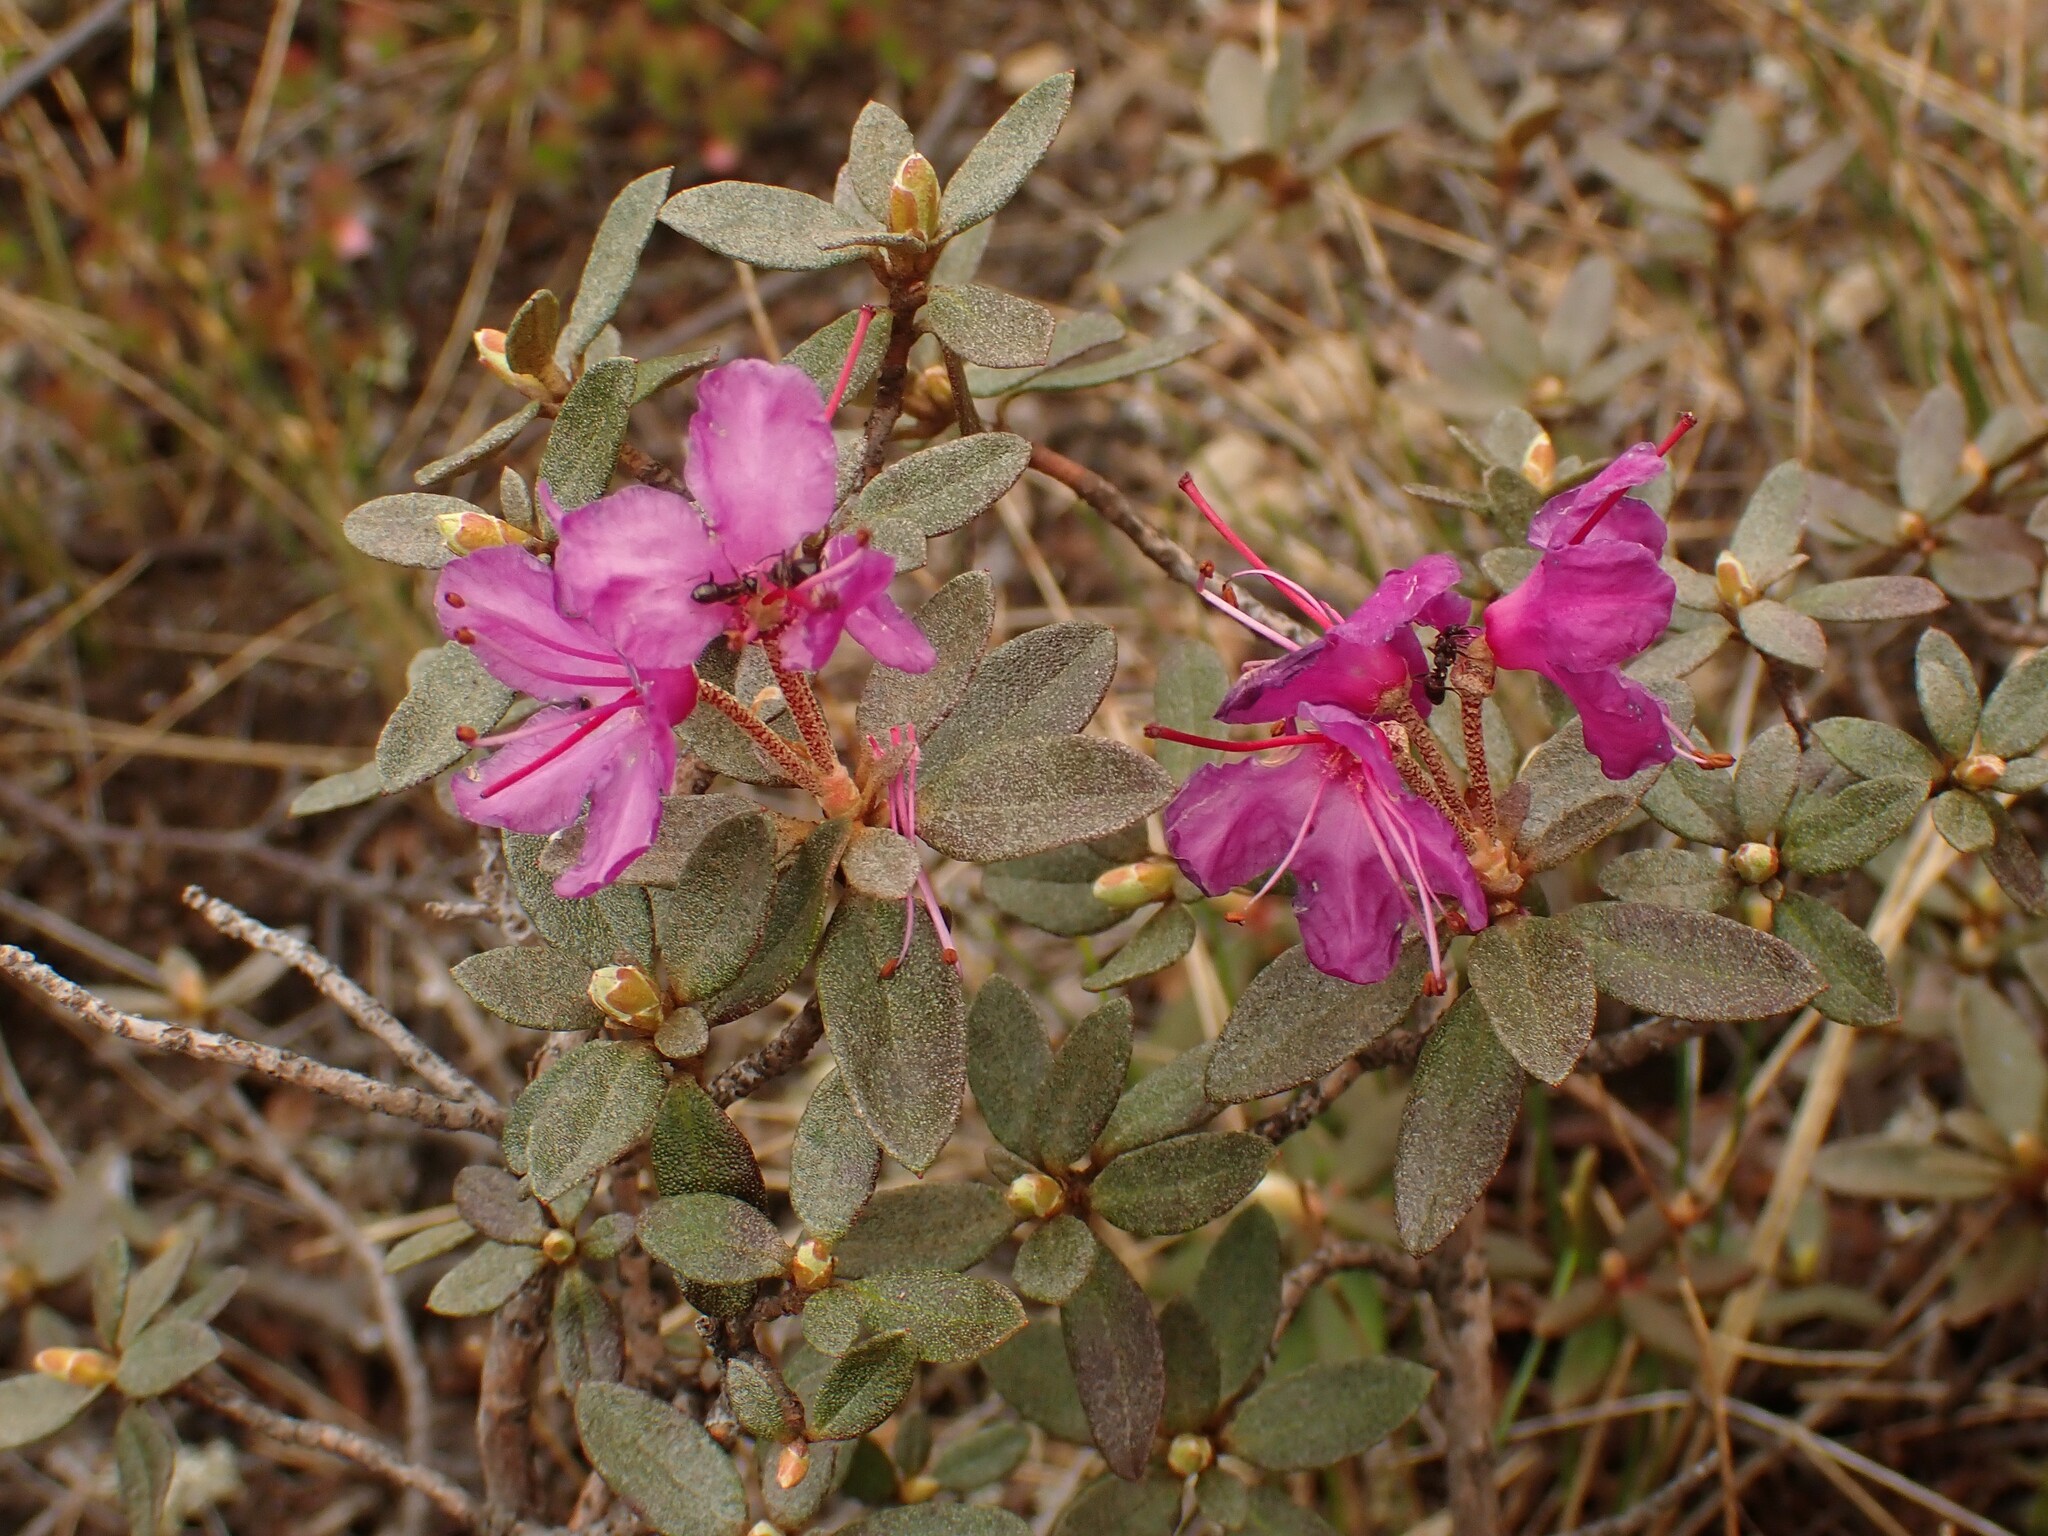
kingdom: Plantae
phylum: Tracheophyta
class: Magnoliopsida
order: Ericales
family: Ericaceae
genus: Rhododendron
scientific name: Rhododendron lapponicum
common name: Lapland rhododendron
